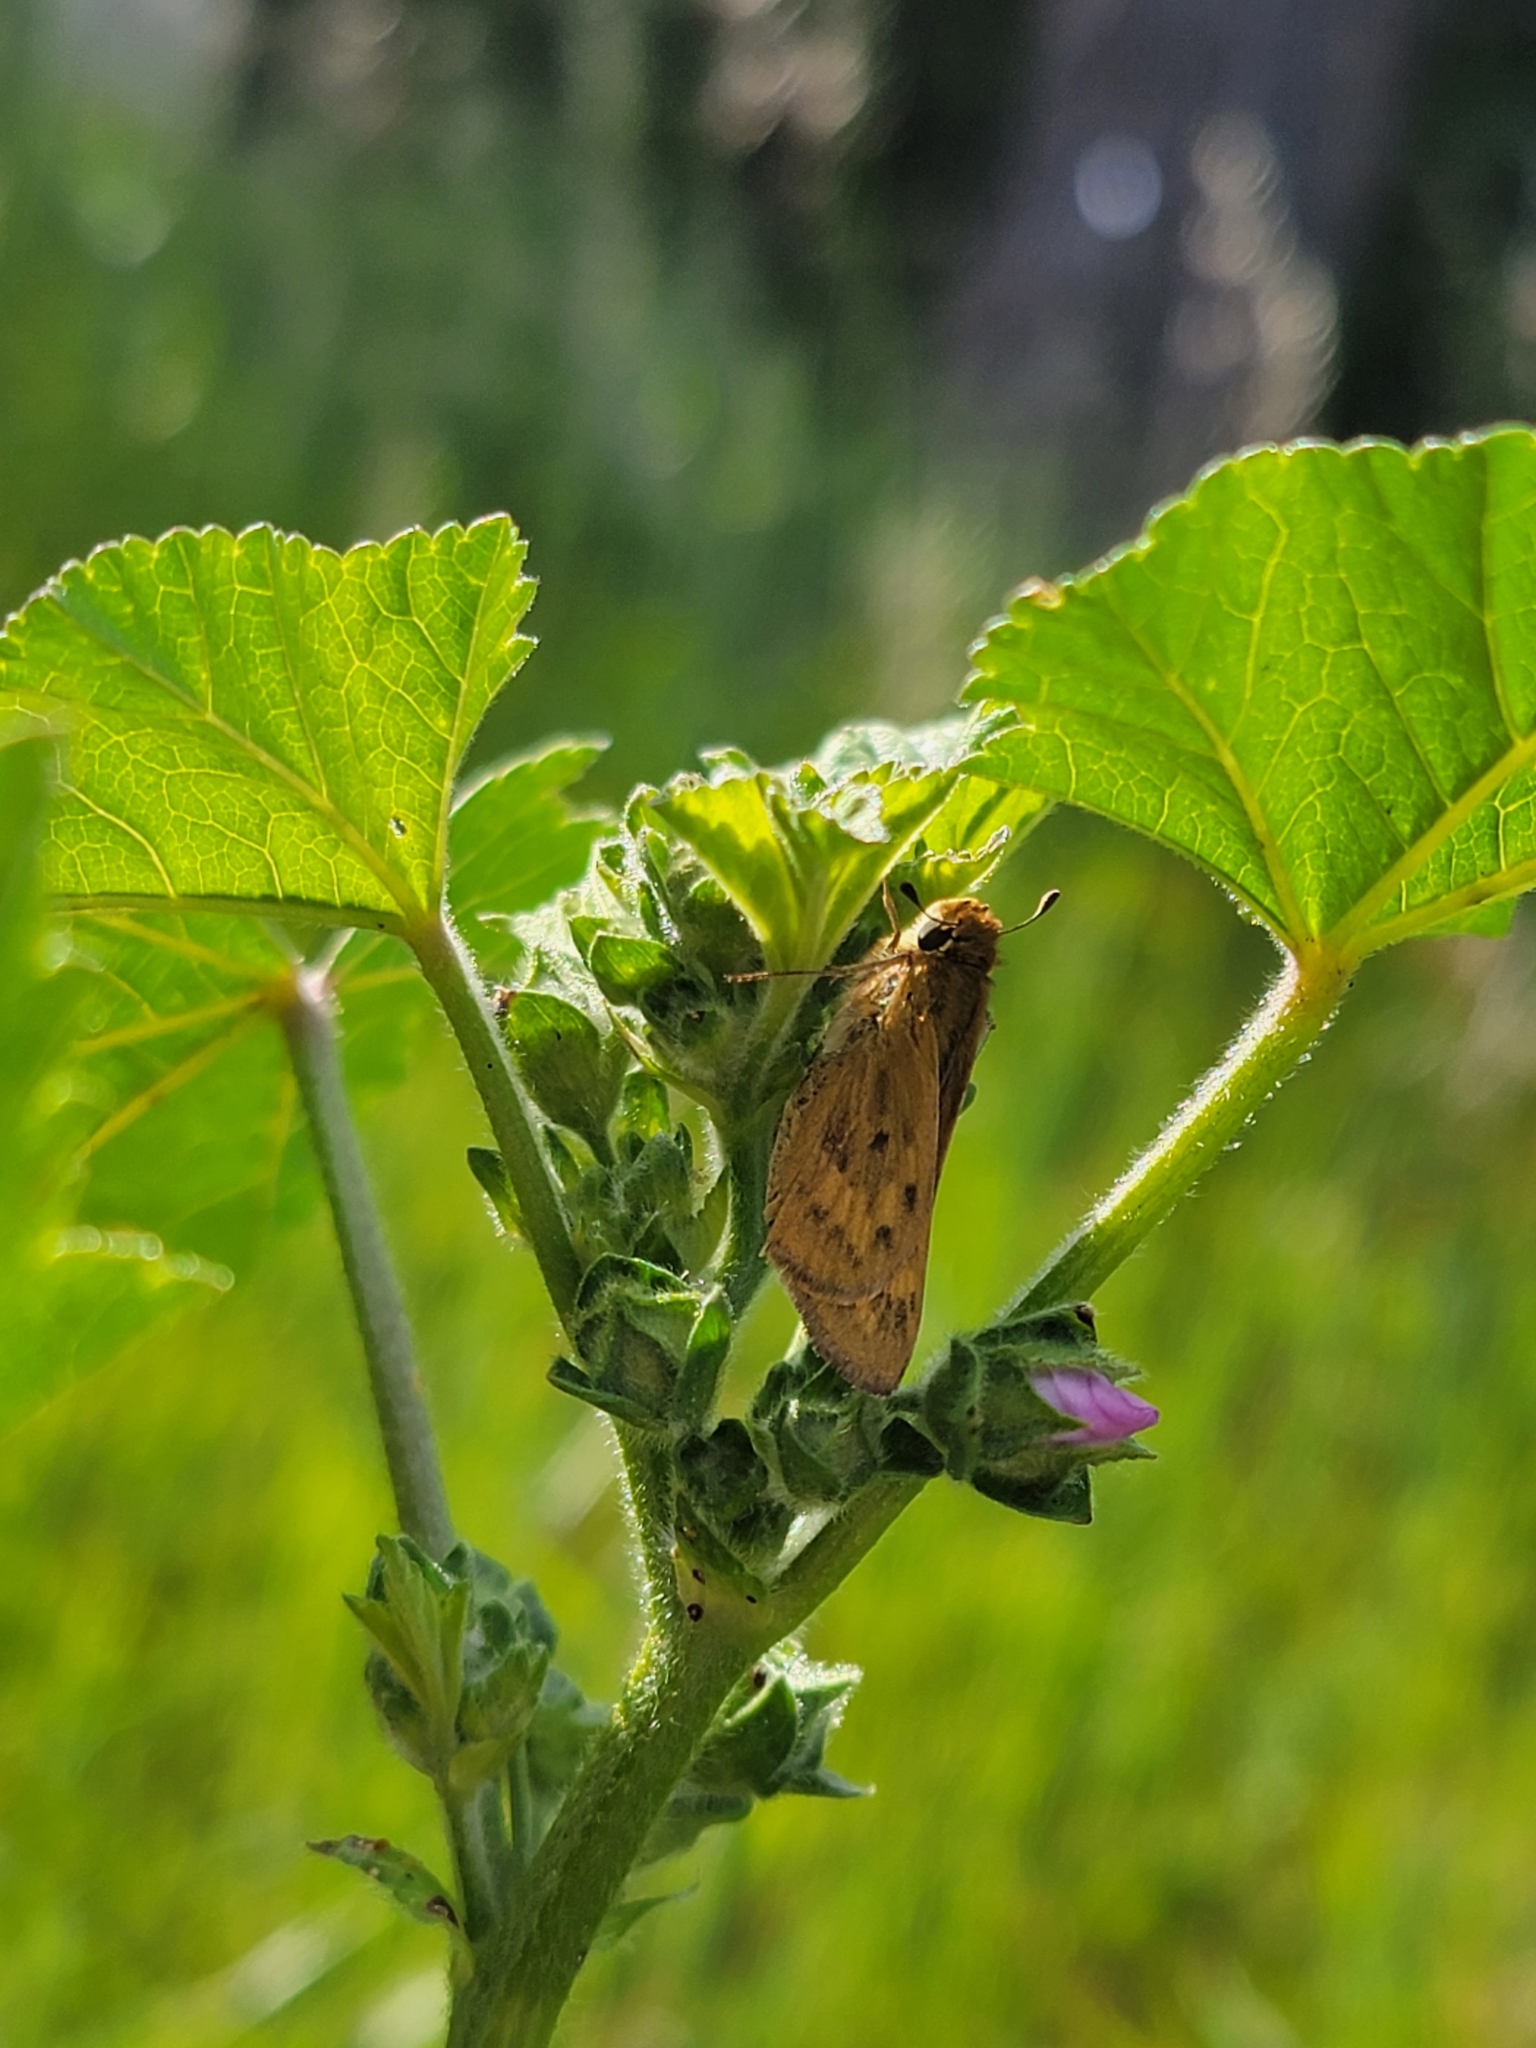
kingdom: Animalia
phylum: Arthropoda
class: Insecta
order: Lepidoptera
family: Hesperiidae
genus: Hylephila
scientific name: Hylephila phyleus
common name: Fiery skipper
